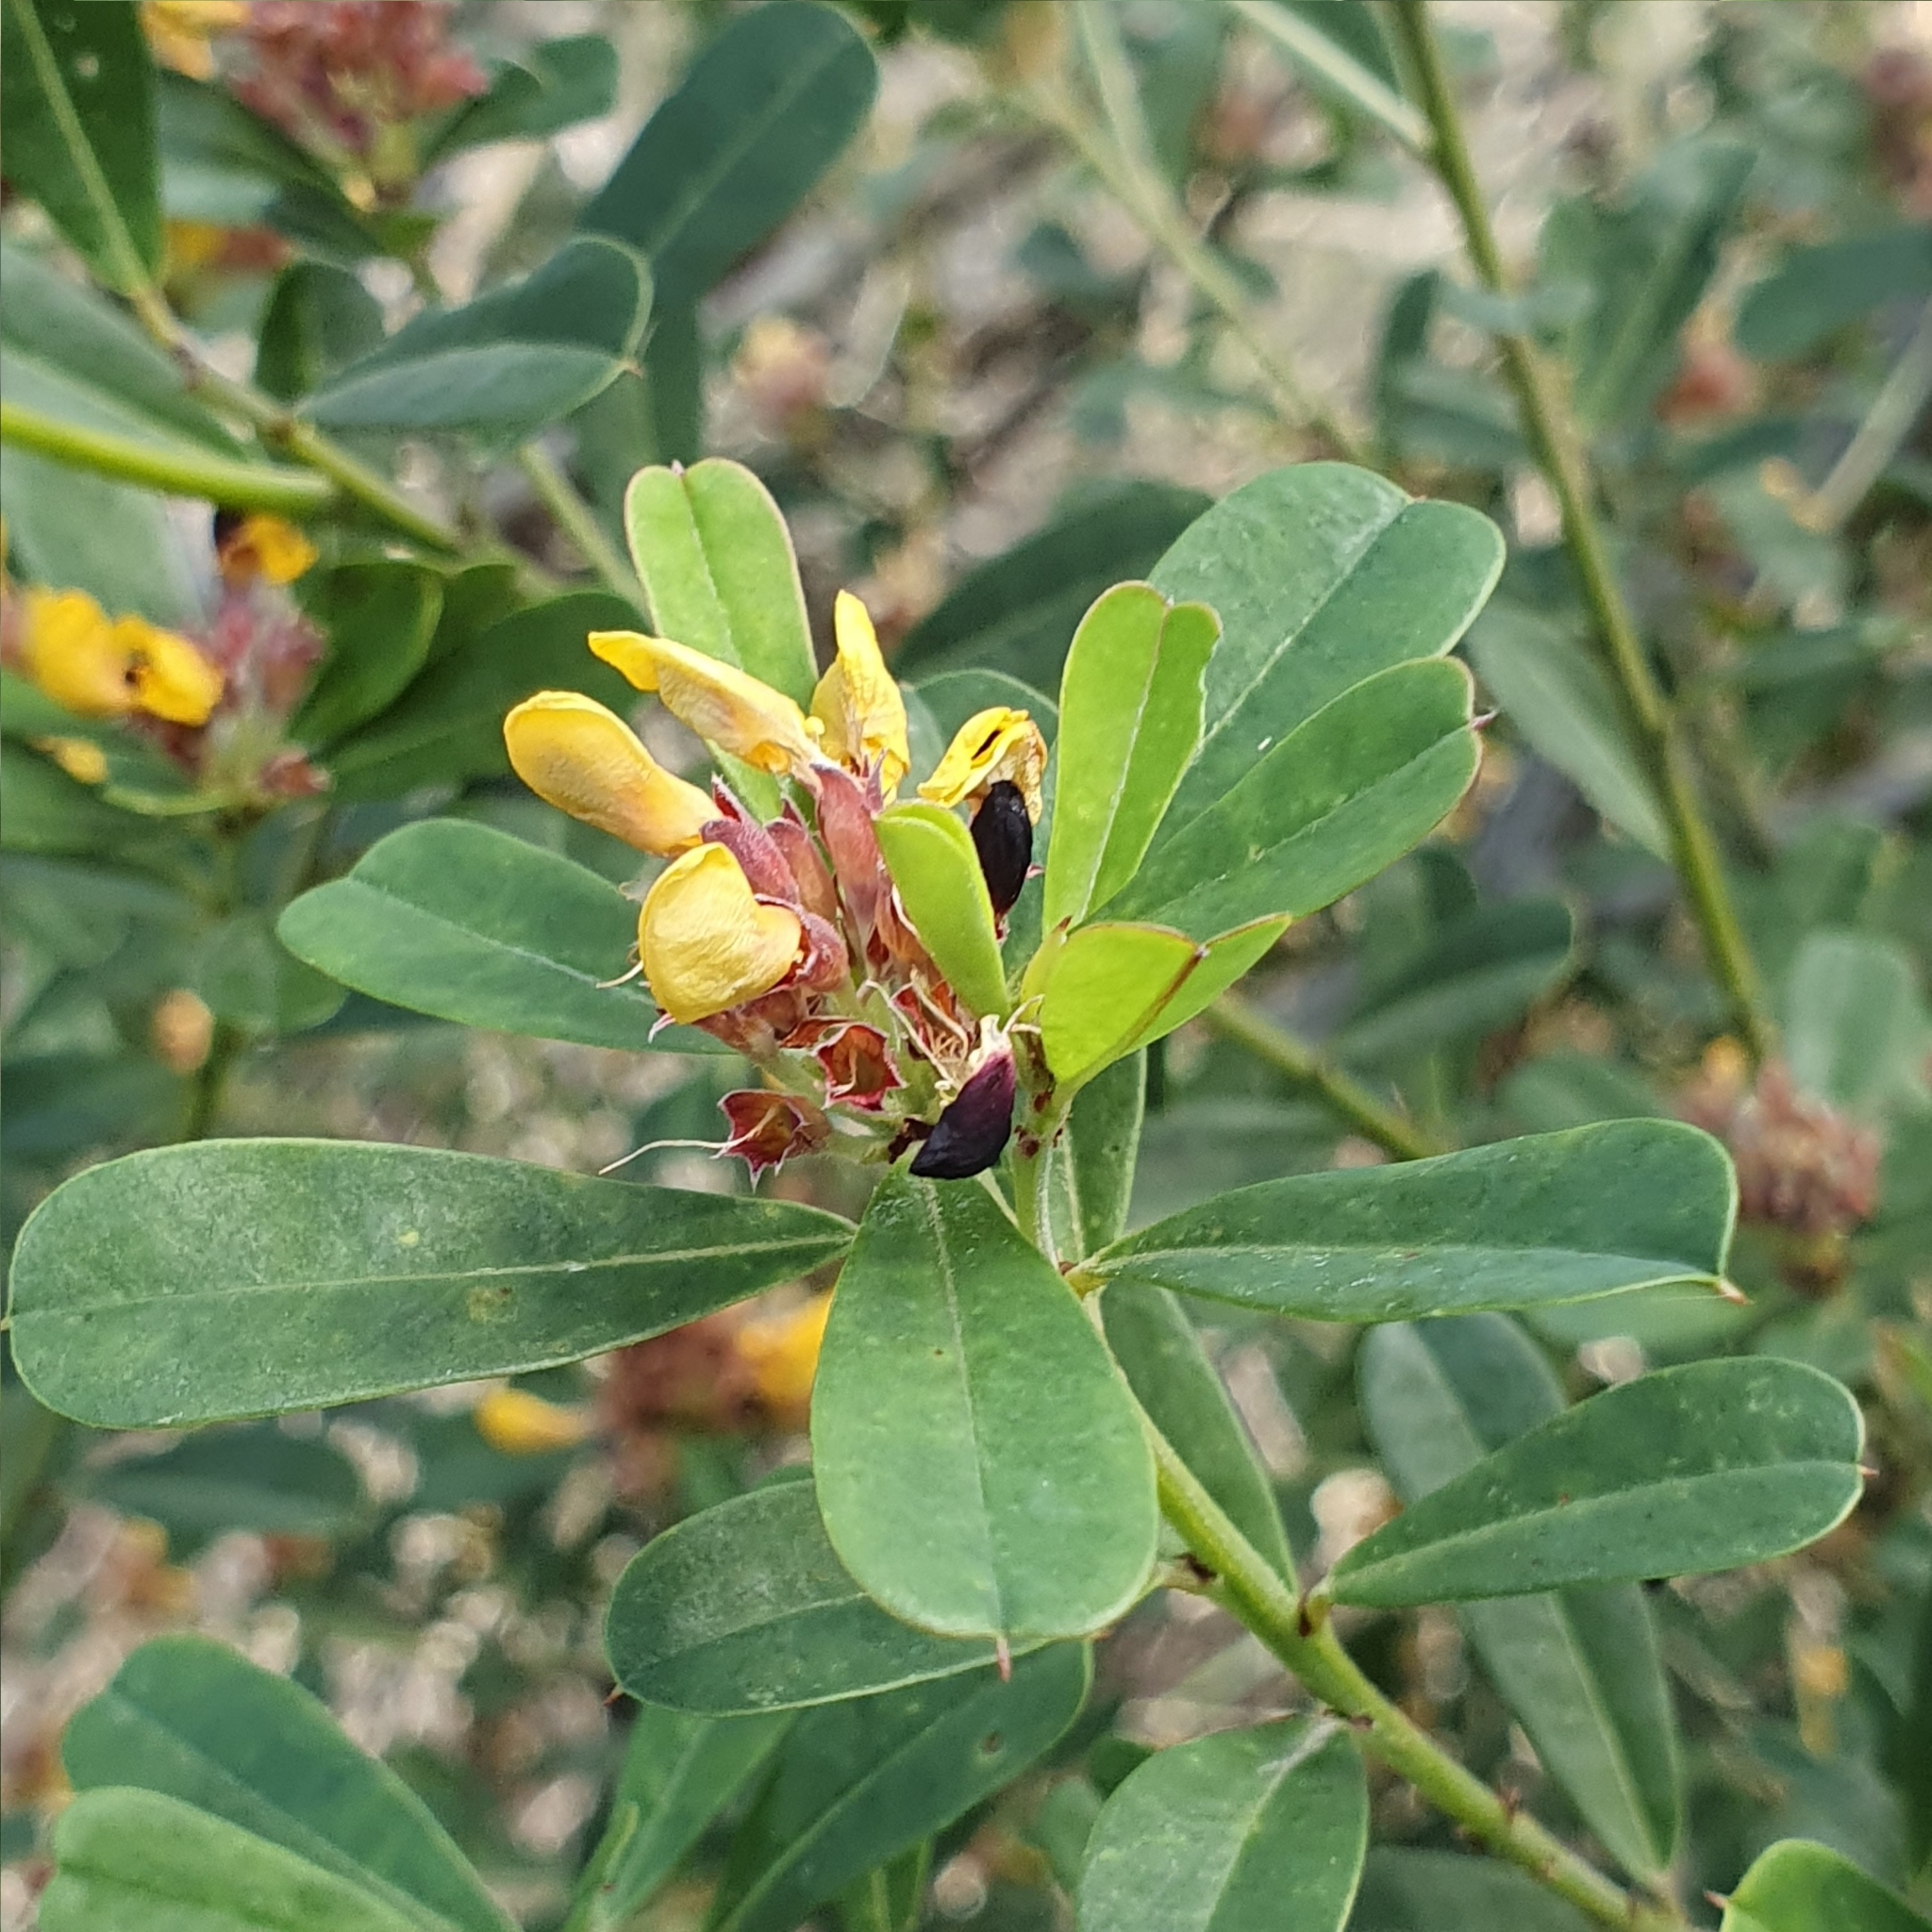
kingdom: Plantae
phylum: Tracheophyta
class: Magnoliopsida
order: Fabales
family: Fabaceae
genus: Pultenaea
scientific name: Pultenaea daphnoides
